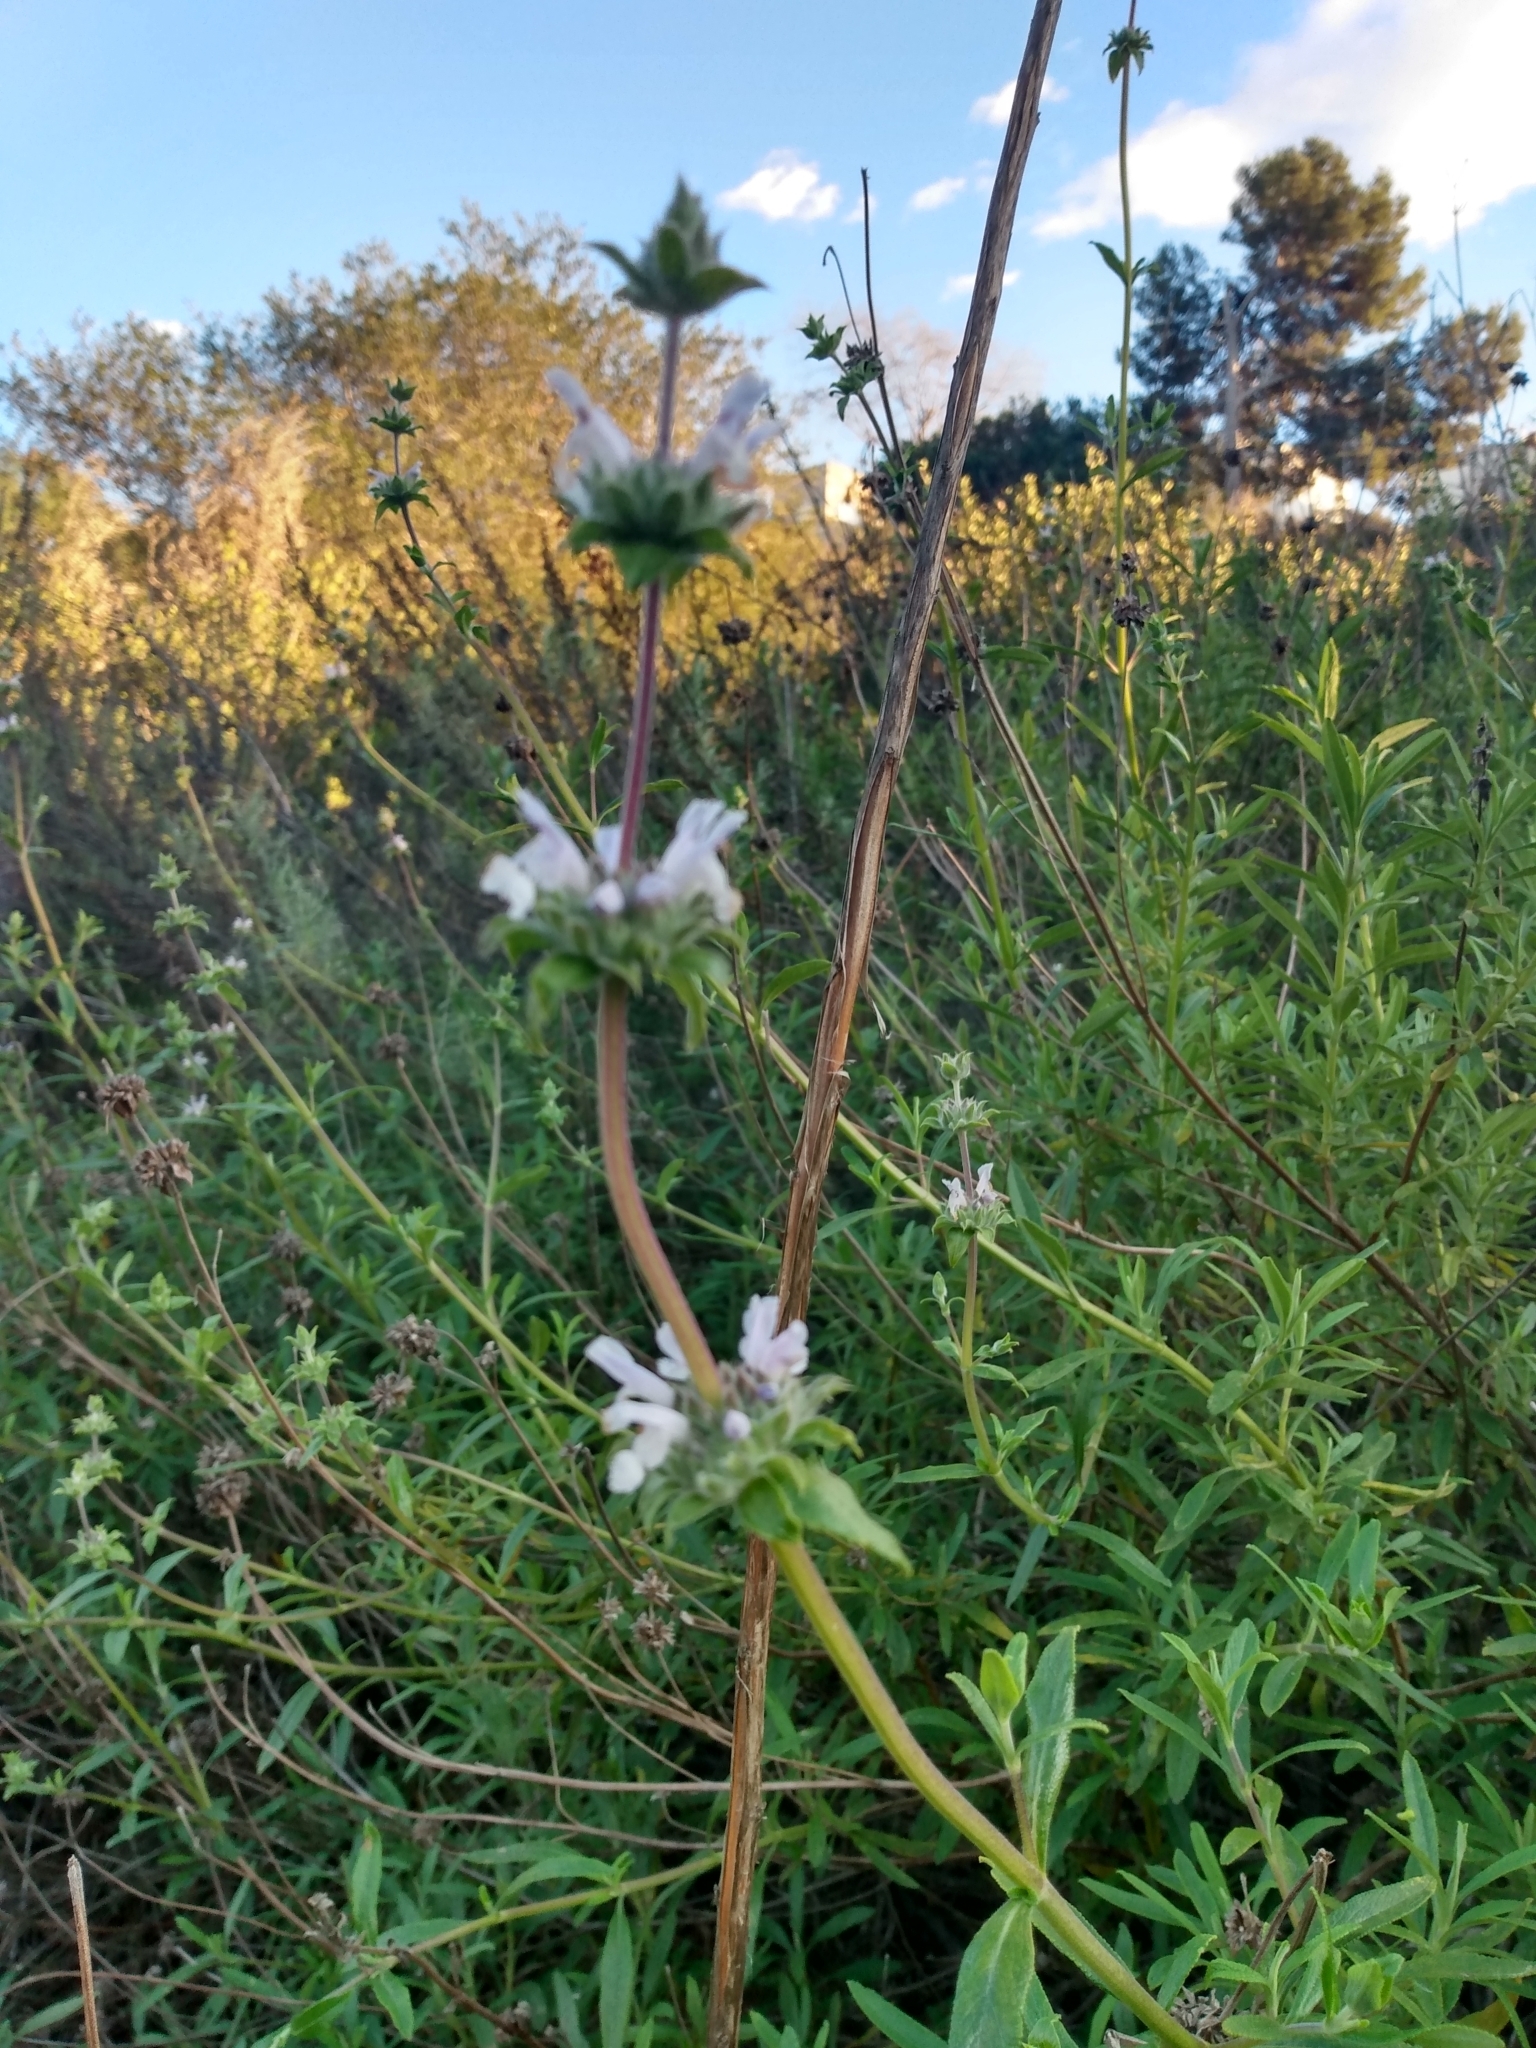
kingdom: Plantae
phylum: Tracheophyta
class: Magnoliopsida
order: Lamiales
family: Lamiaceae
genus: Salvia
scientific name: Salvia mellifera
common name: Black sage
